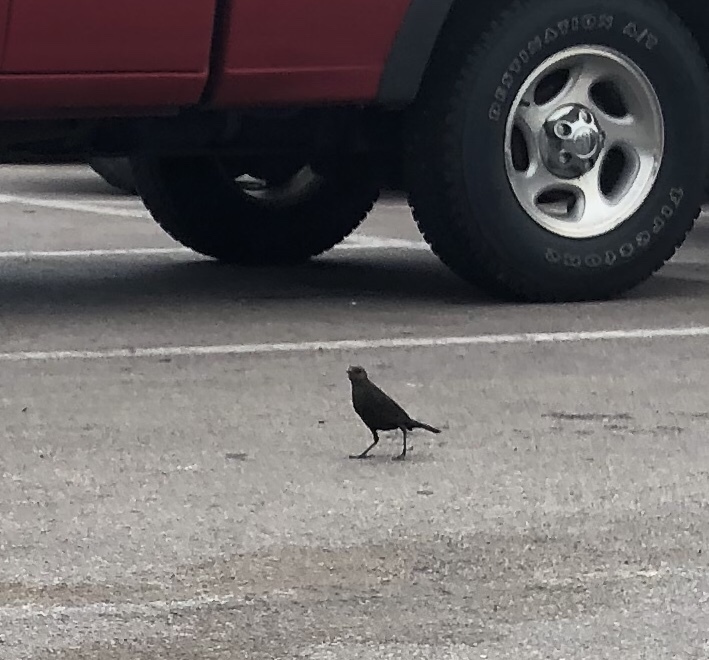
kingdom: Animalia
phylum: Chordata
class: Aves
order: Passeriformes
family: Icteridae
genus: Euphagus
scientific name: Euphagus cyanocephalus
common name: Brewer's blackbird
